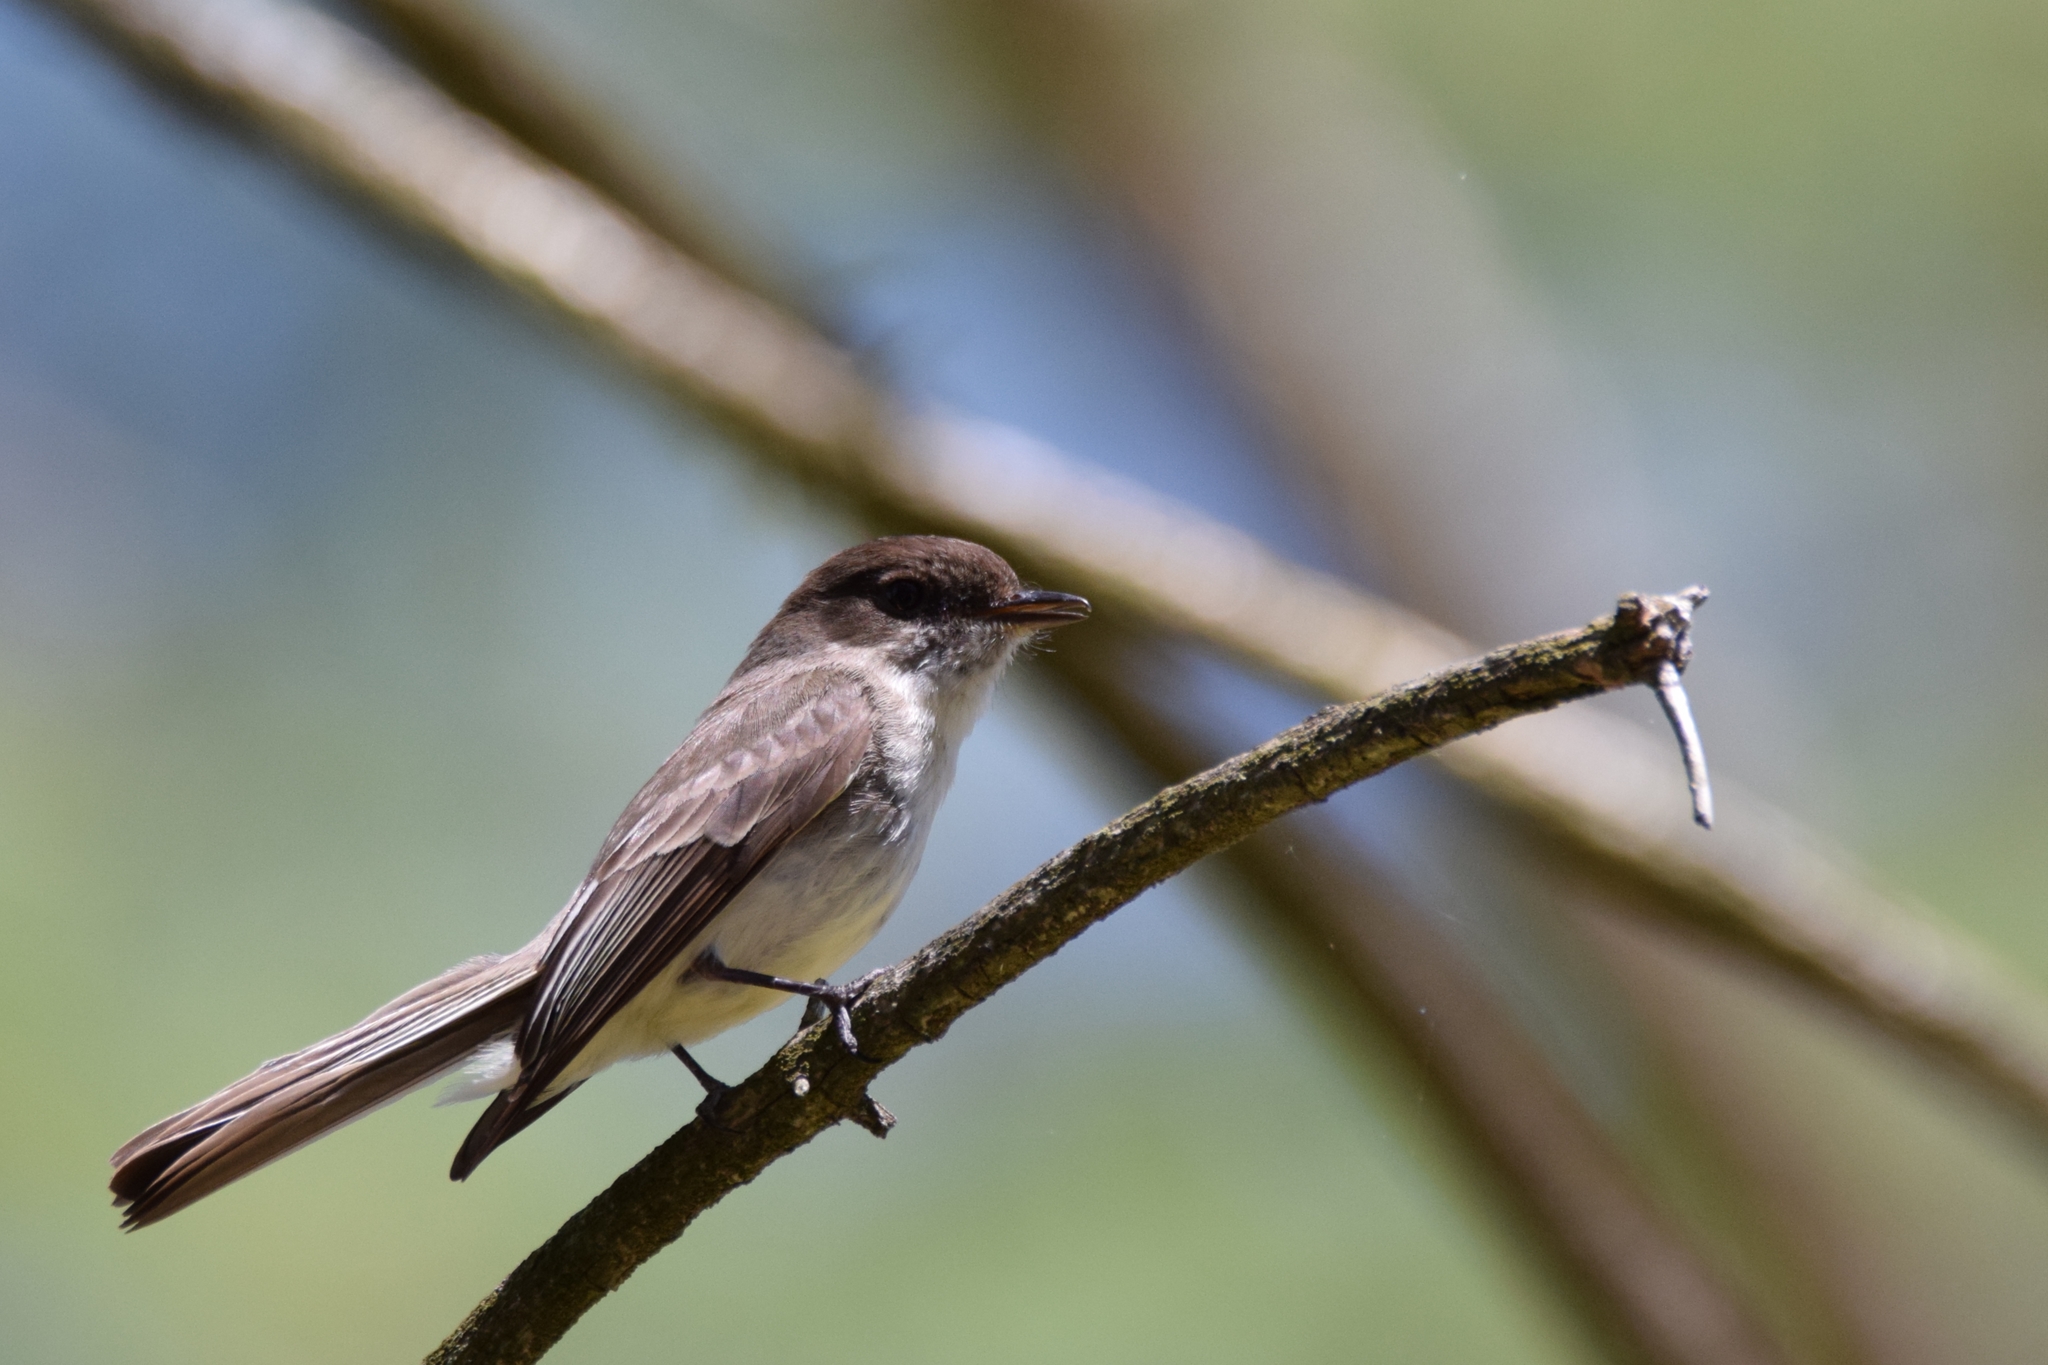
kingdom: Animalia
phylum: Chordata
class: Aves
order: Passeriformes
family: Tyrannidae
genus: Sayornis
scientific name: Sayornis phoebe
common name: Eastern phoebe
